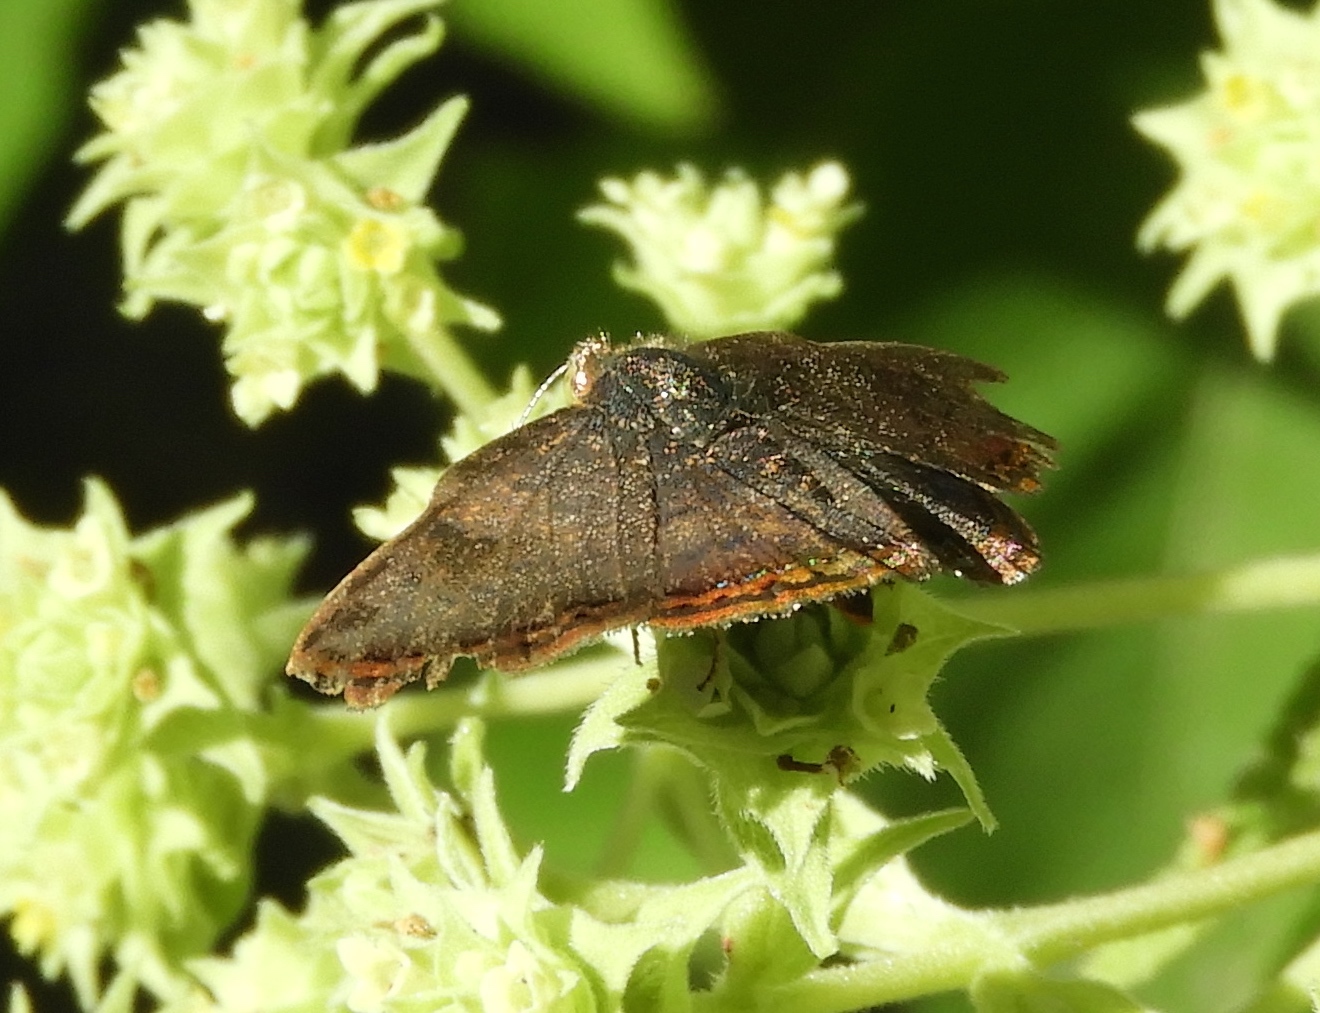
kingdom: Animalia
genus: Caria
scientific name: Caria ino
